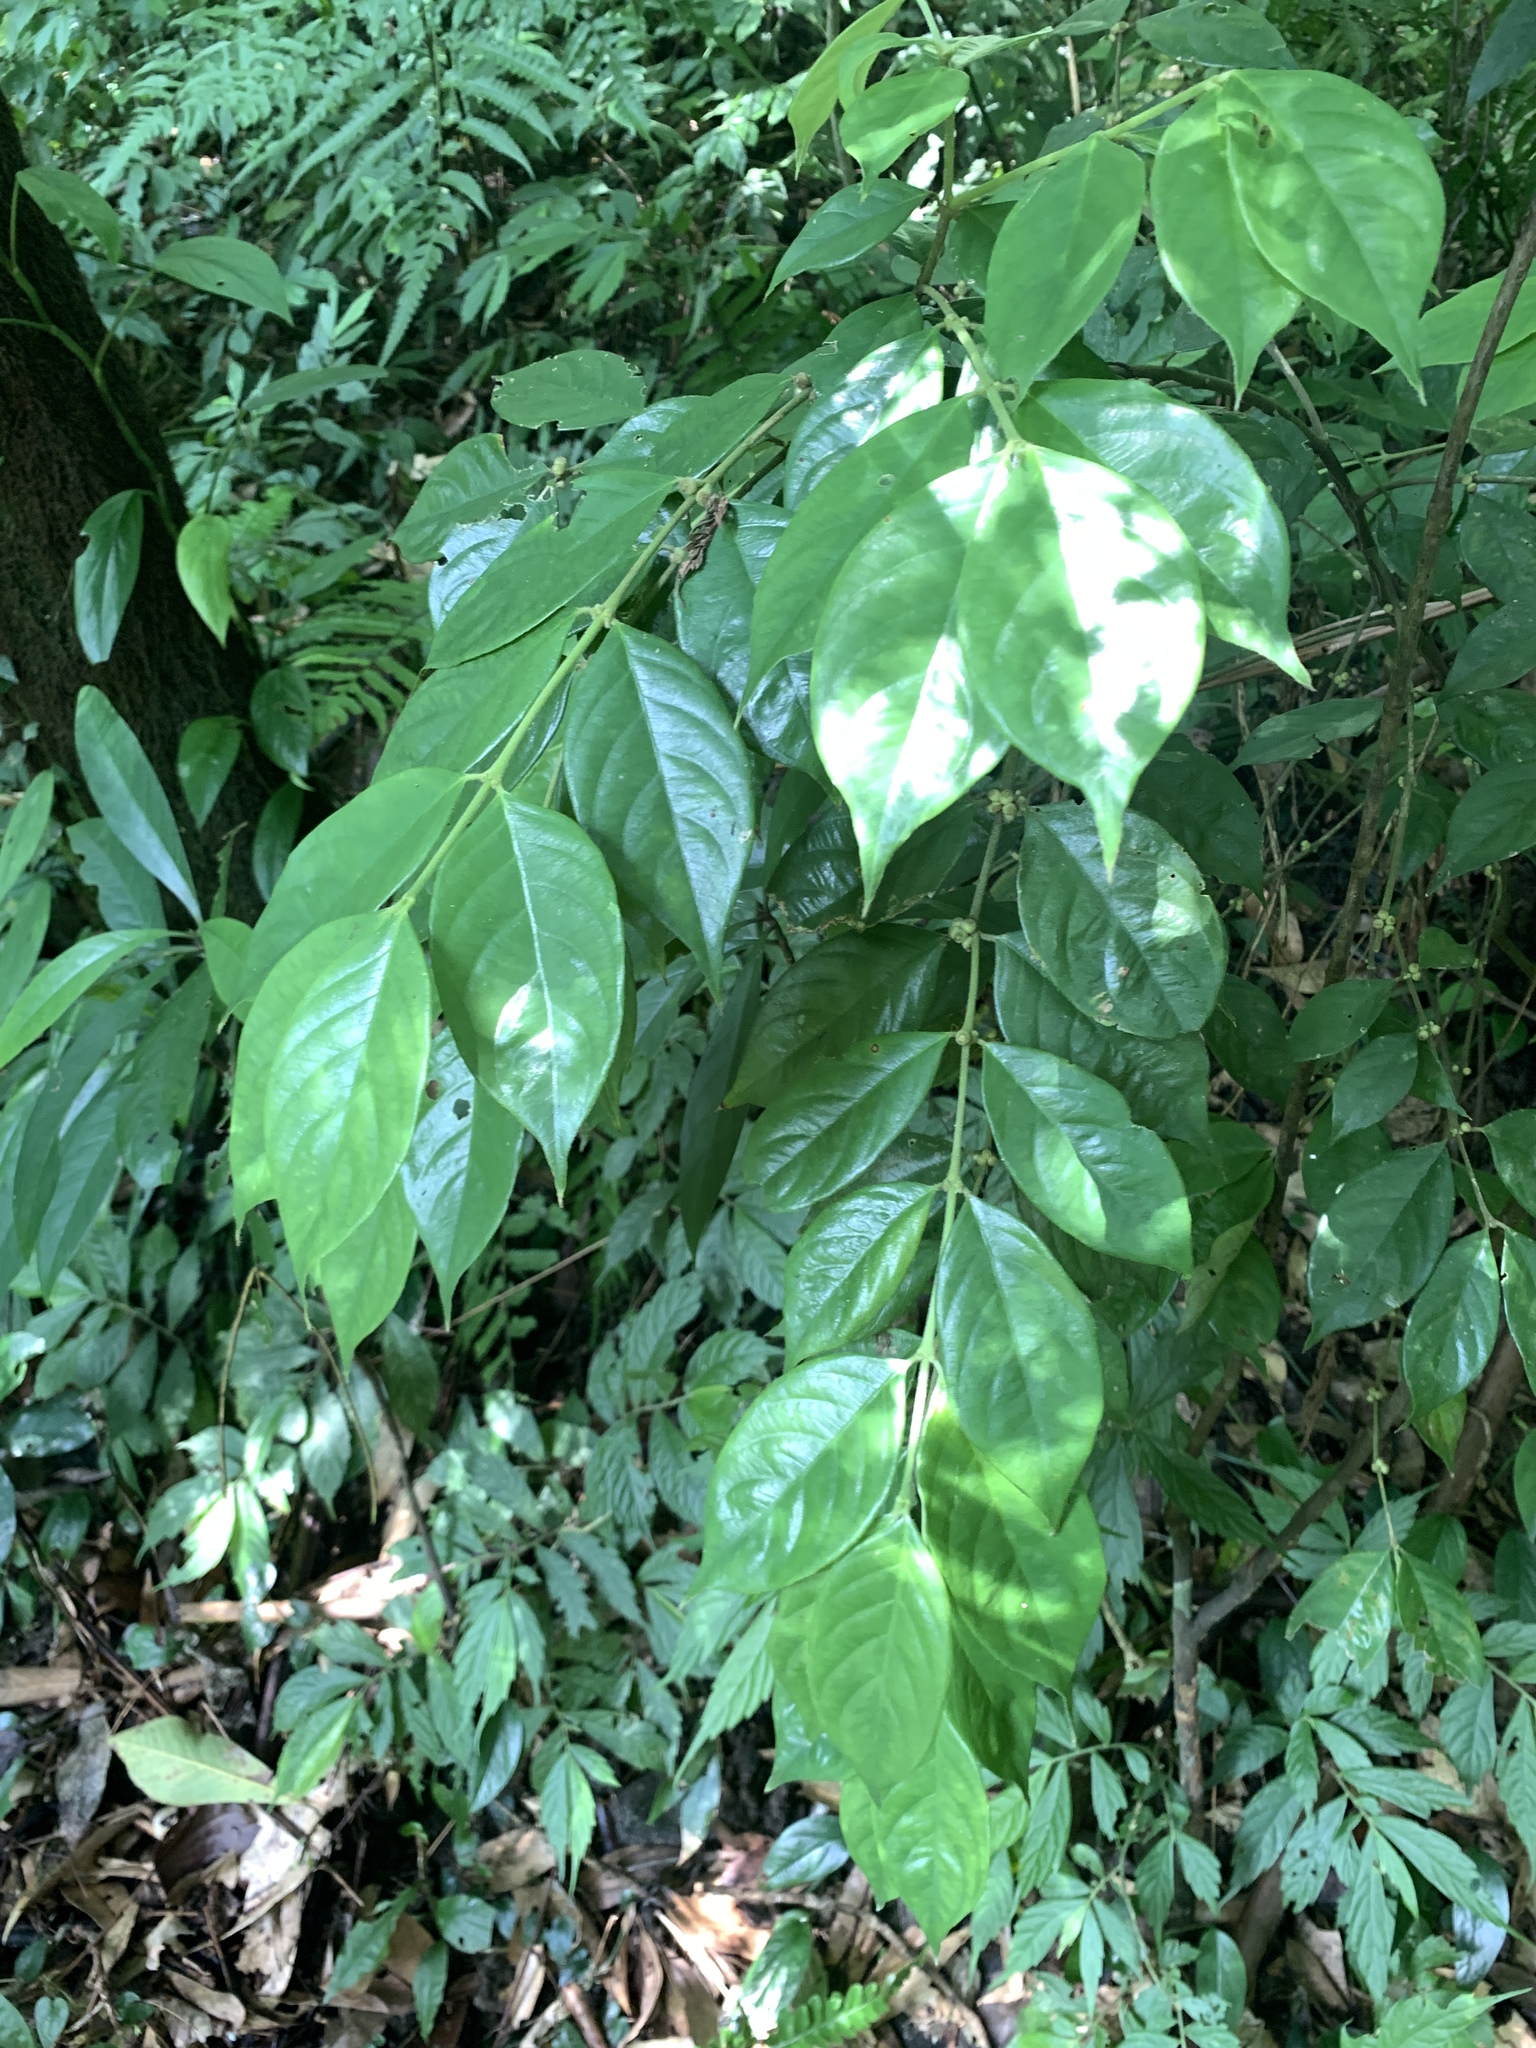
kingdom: Plantae
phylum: Tracheophyta
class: Magnoliopsida
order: Gentianales
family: Rubiaceae
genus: Lasianthus
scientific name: Lasianthus hispidulus
